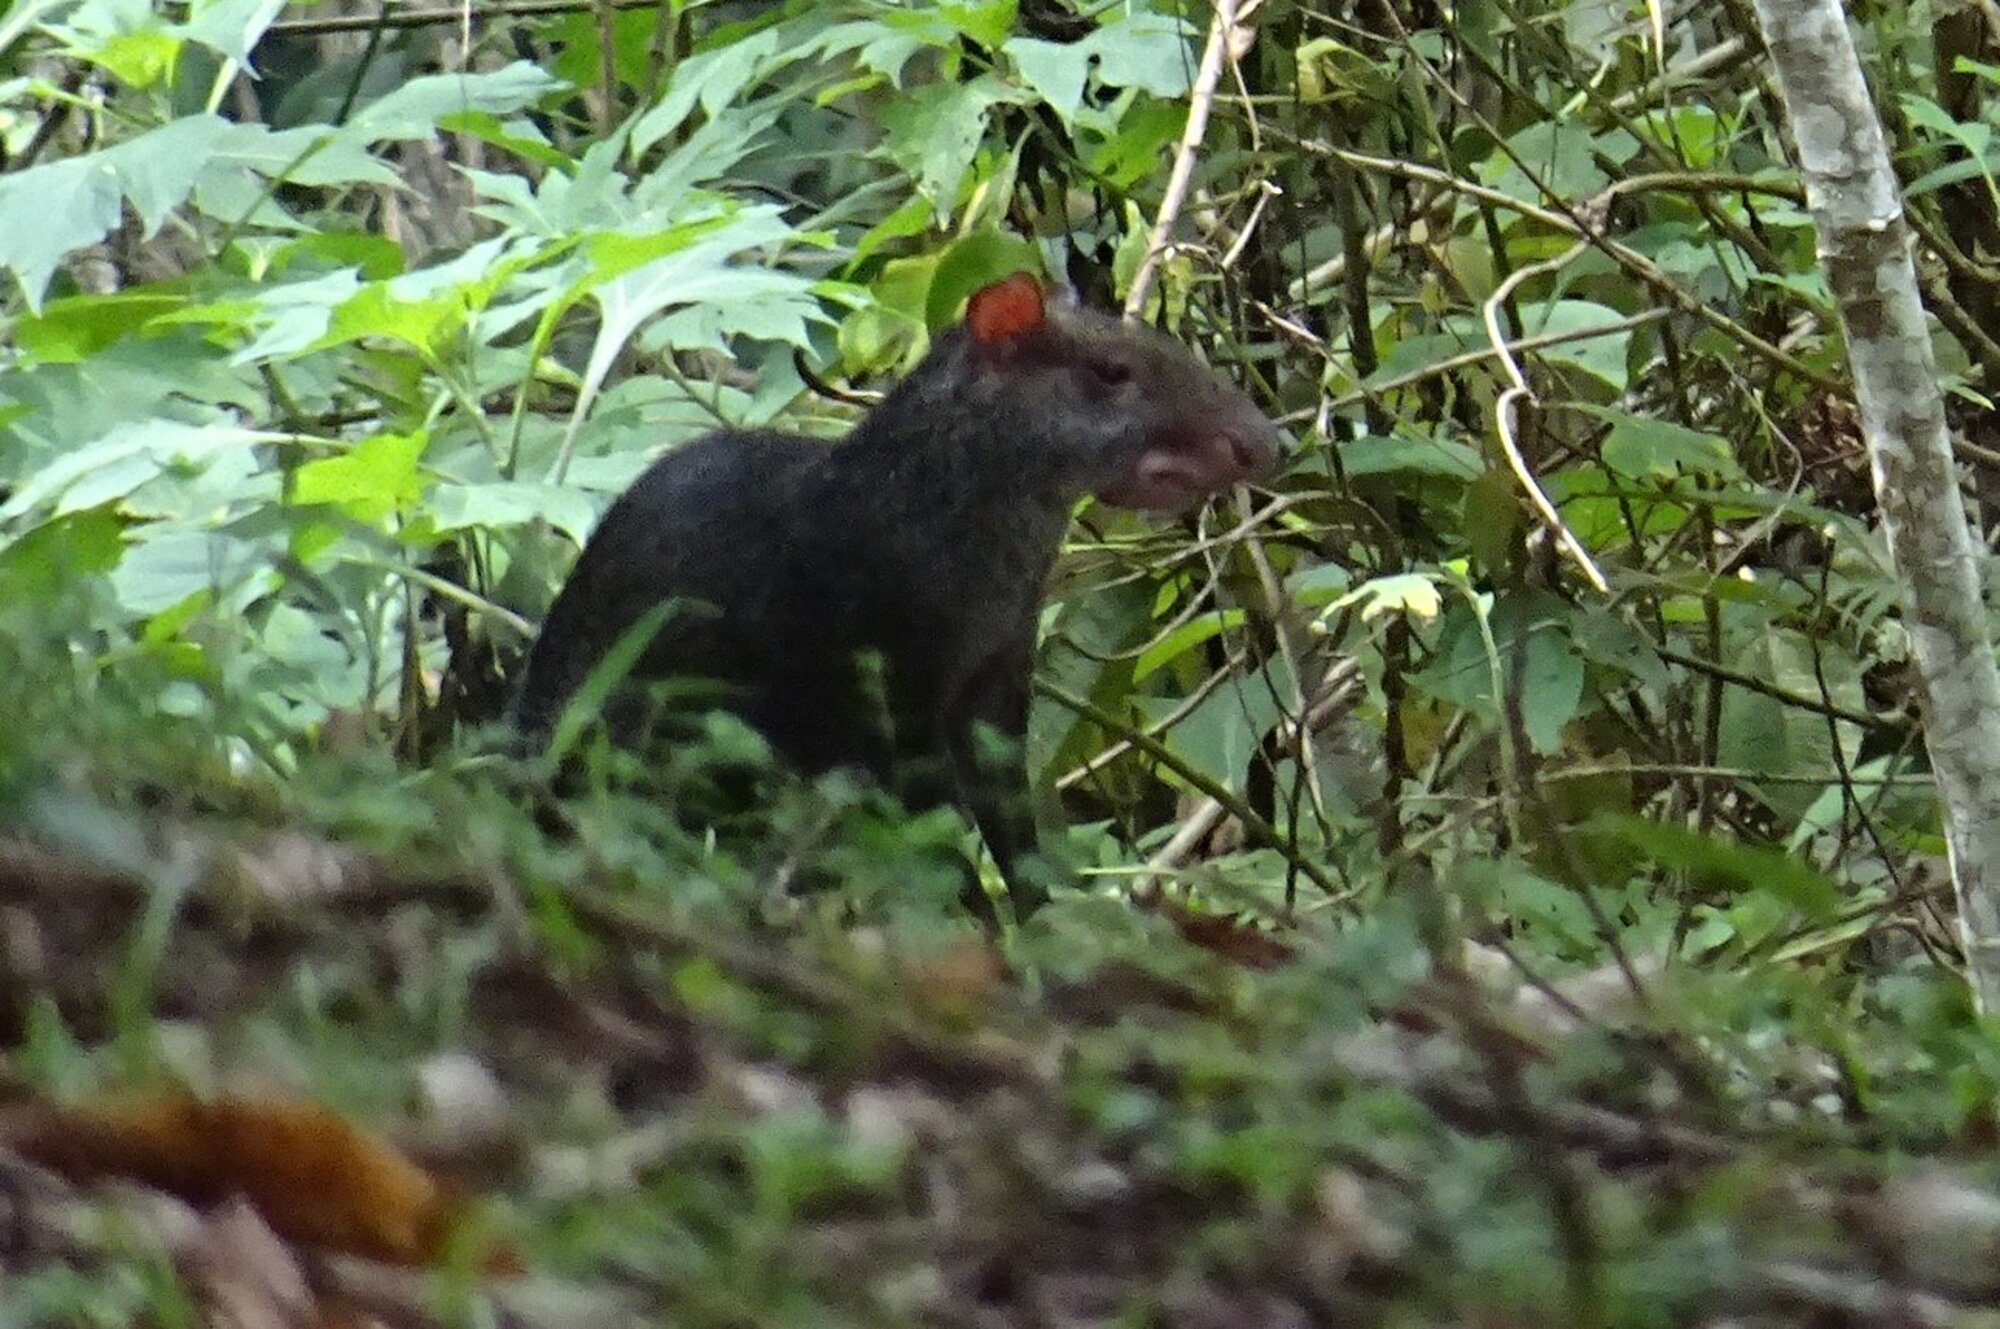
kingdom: Animalia
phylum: Chordata
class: Mammalia
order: Rodentia
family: Dasyproctidae
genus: Dasyprocta
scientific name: Dasyprocta punctata
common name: Central american agouti
